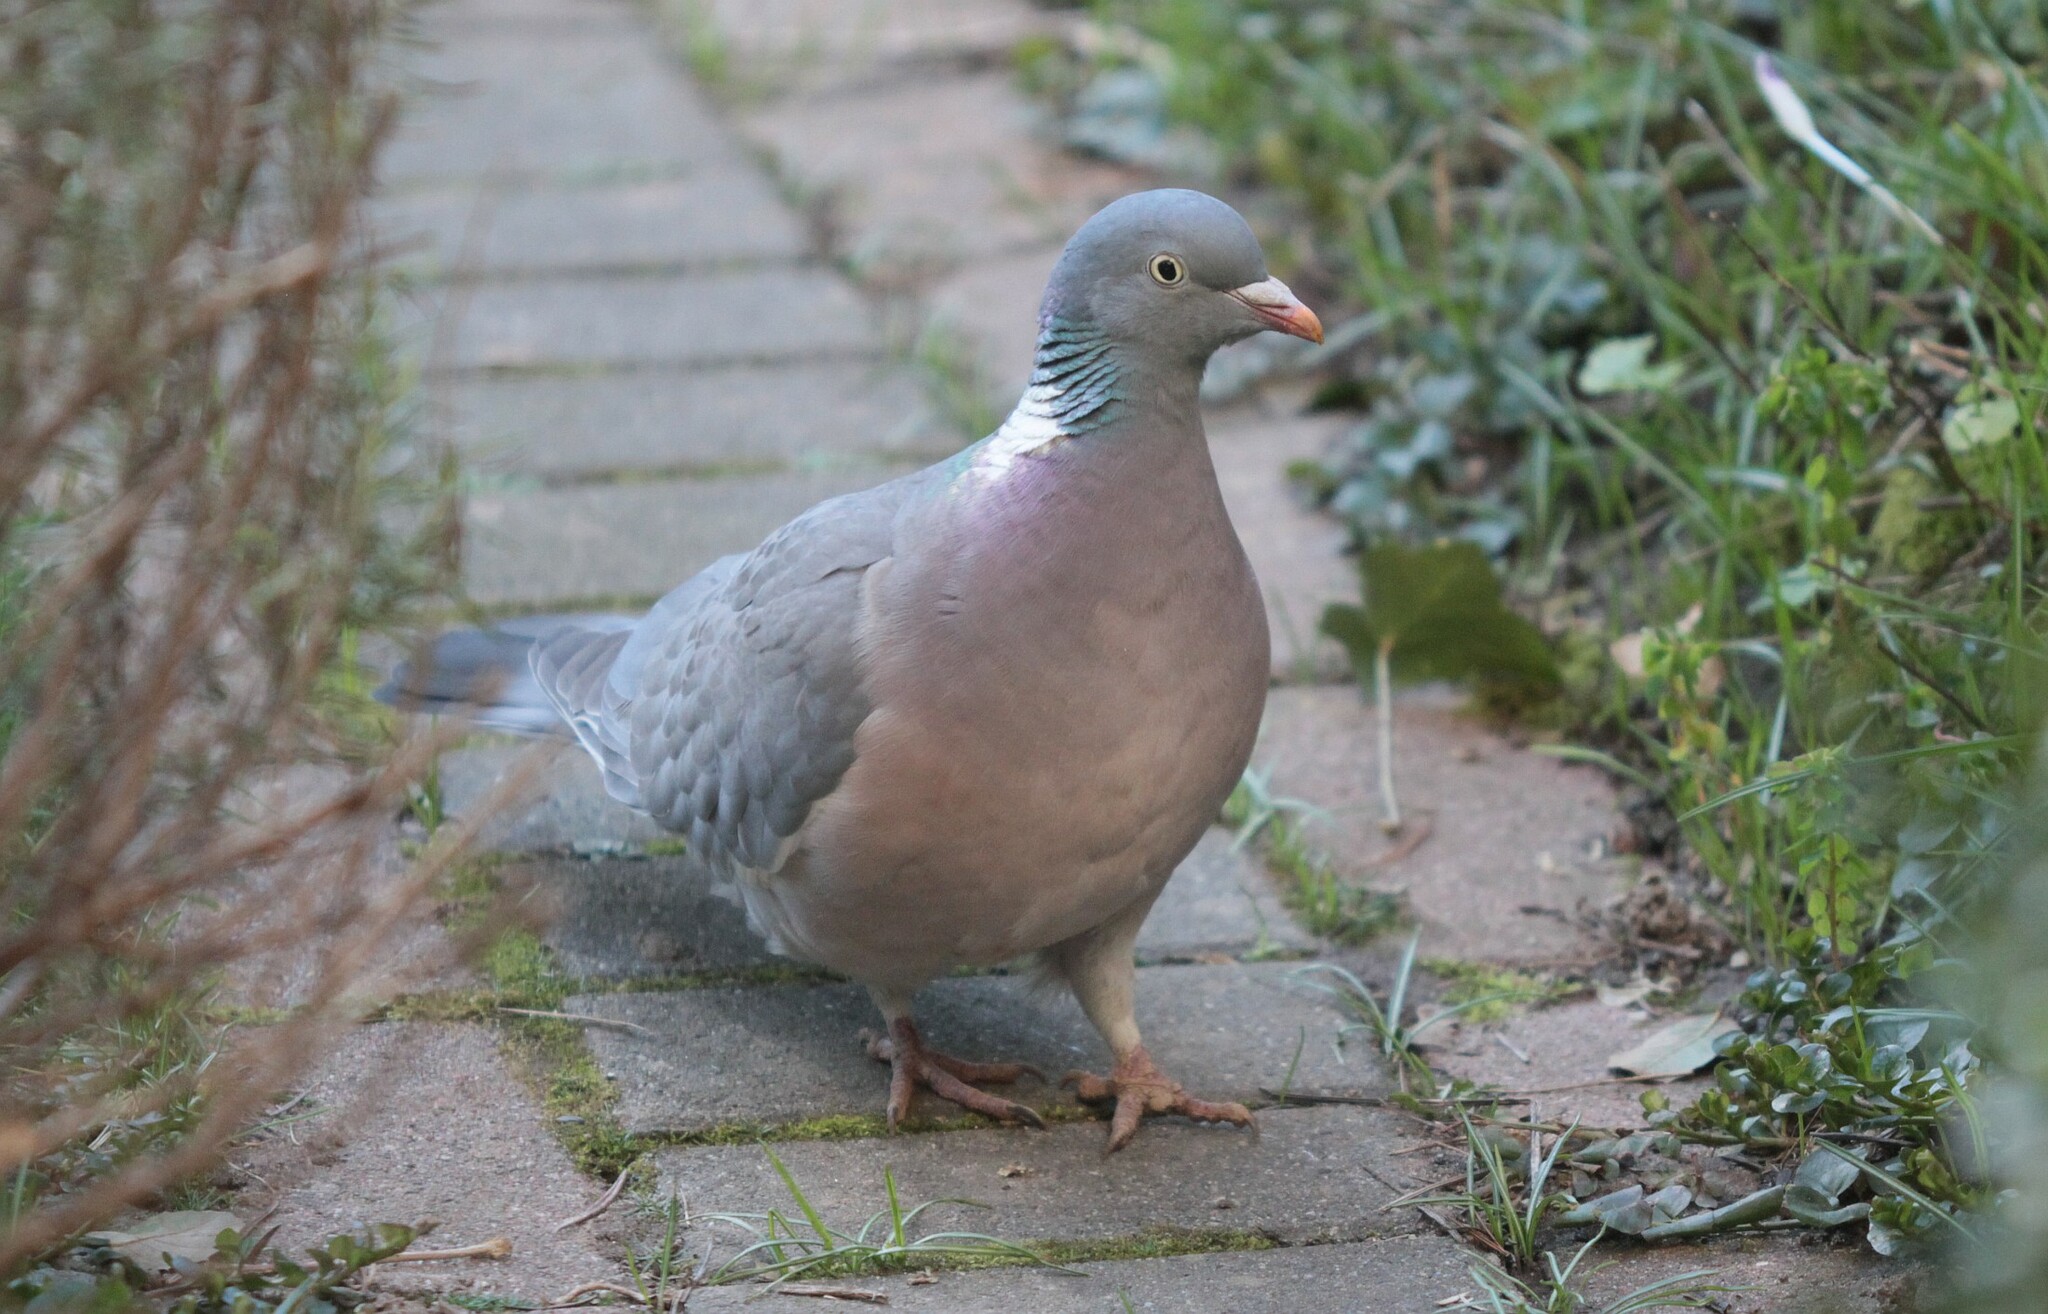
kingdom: Animalia
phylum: Chordata
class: Aves
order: Columbiformes
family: Columbidae
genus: Columba
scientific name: Columba palumbus
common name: Common wood pigeon
